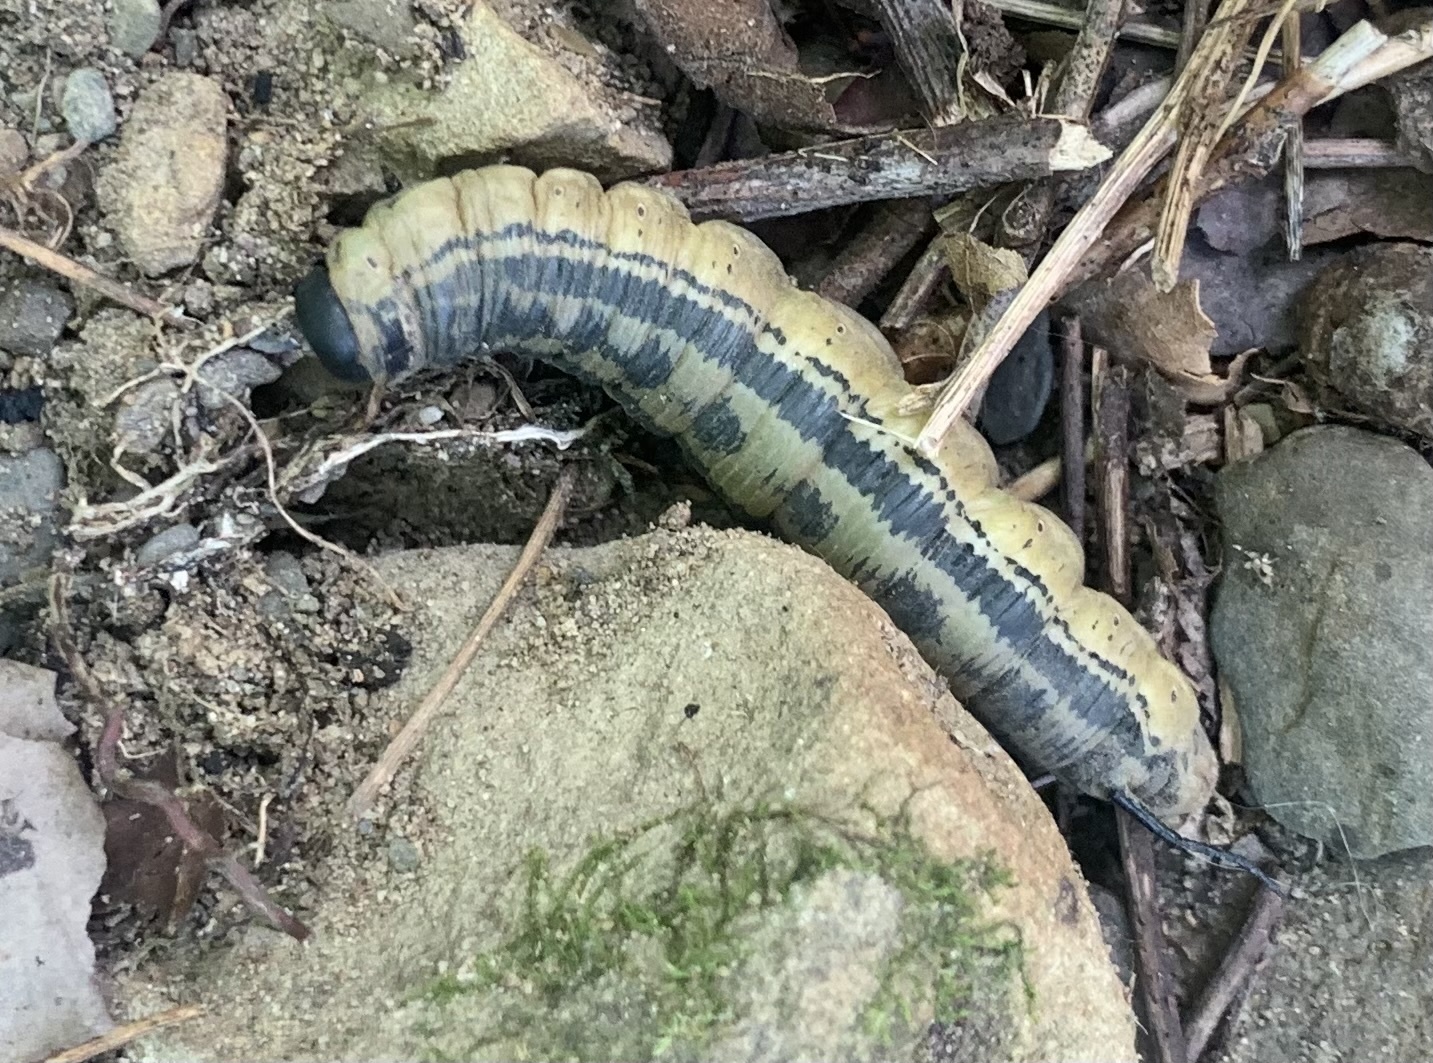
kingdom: Animalia
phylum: Arthropoda
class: Insecta
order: Lepidoptera
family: Sphingidae
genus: Ceratomia
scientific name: Ceratomia catalpae
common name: Catalpa hornworm
